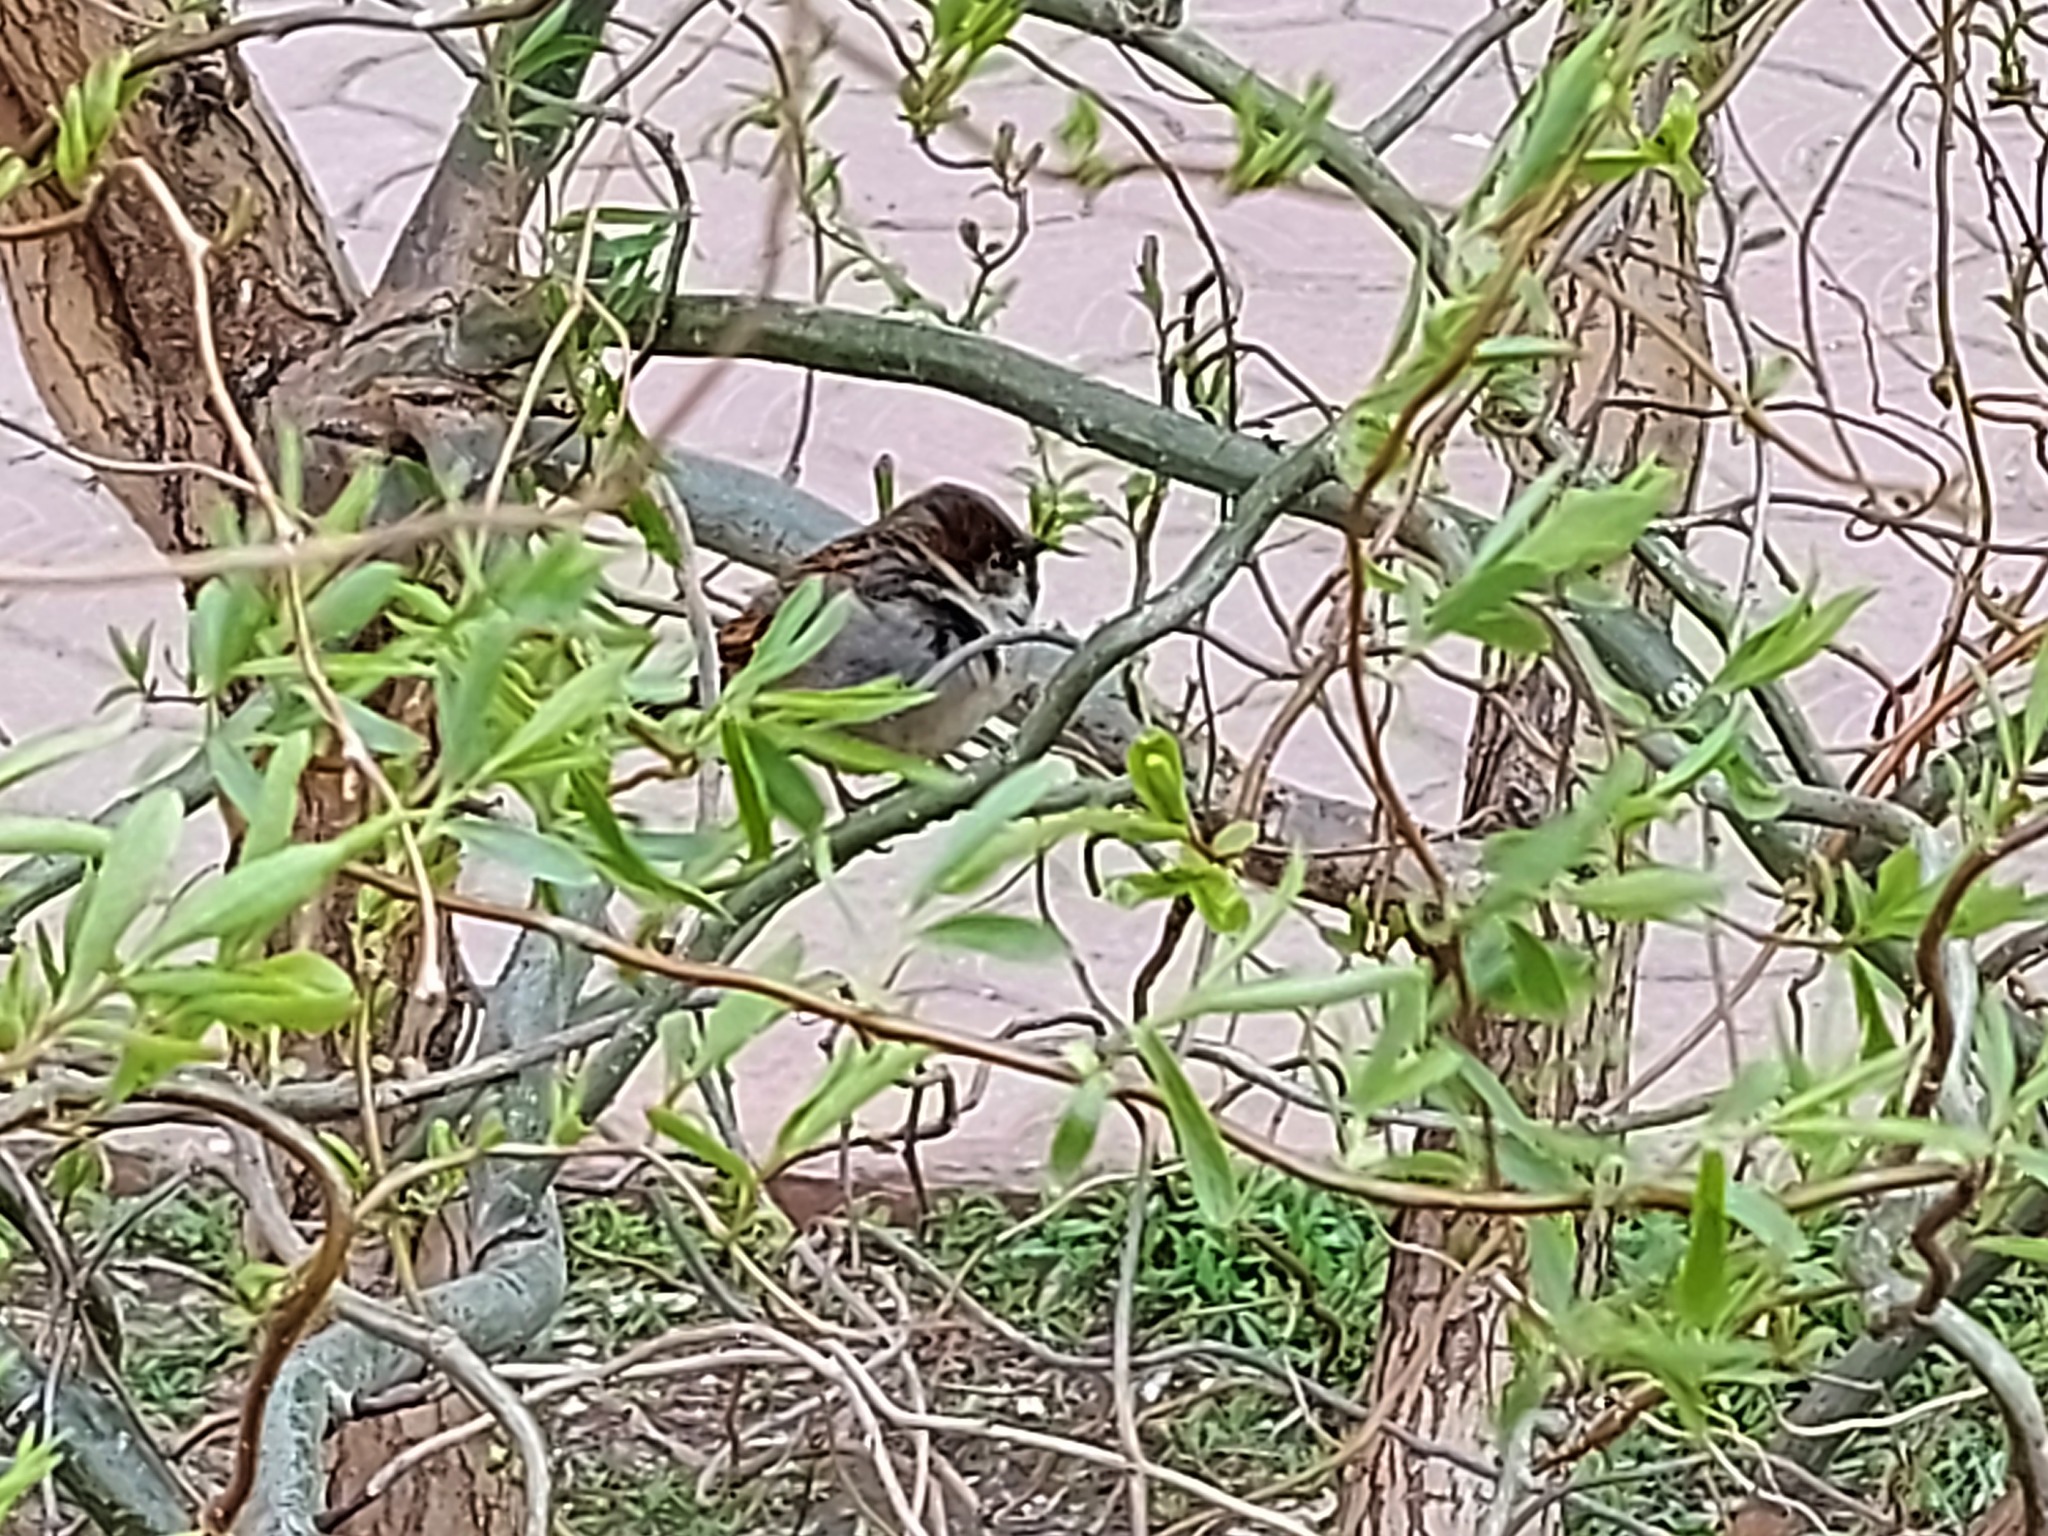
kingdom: Animalia
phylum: Chordata
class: Aves
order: Passeriformes
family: Passeridae
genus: Passer
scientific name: Passer domesticus
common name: House sparrow
